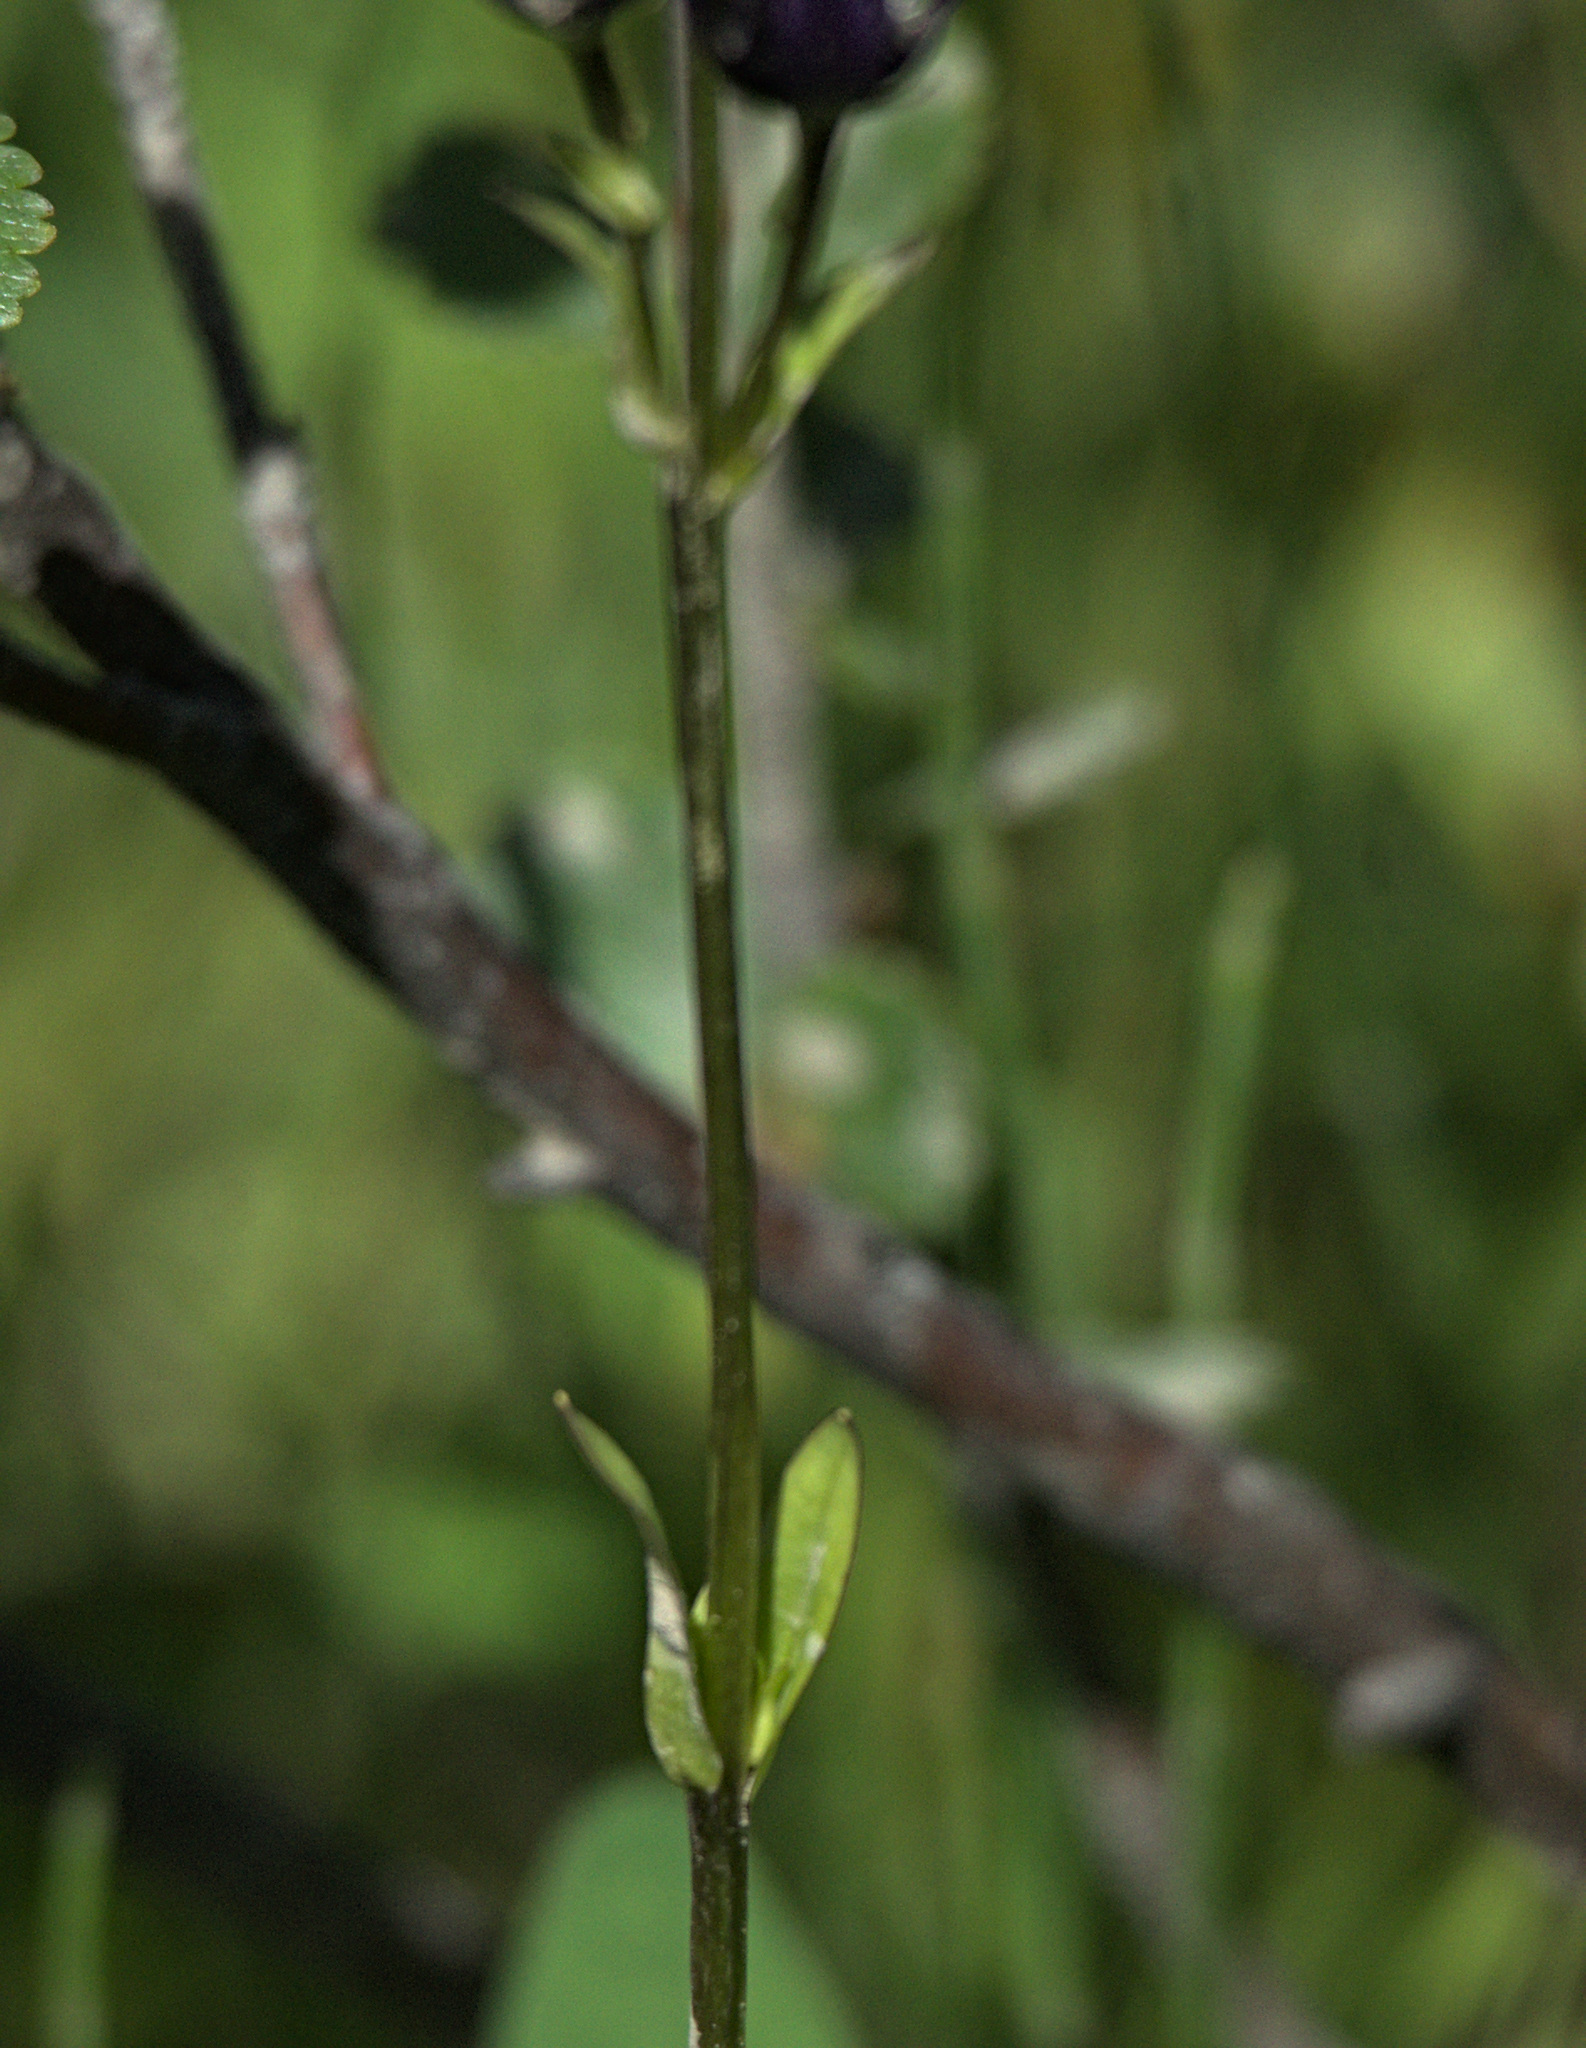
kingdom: Plantae
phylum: Tracheophyta
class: Magnoliopsida
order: Gentianales
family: Gentianaceae
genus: Swertia
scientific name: Swertia obtusa
